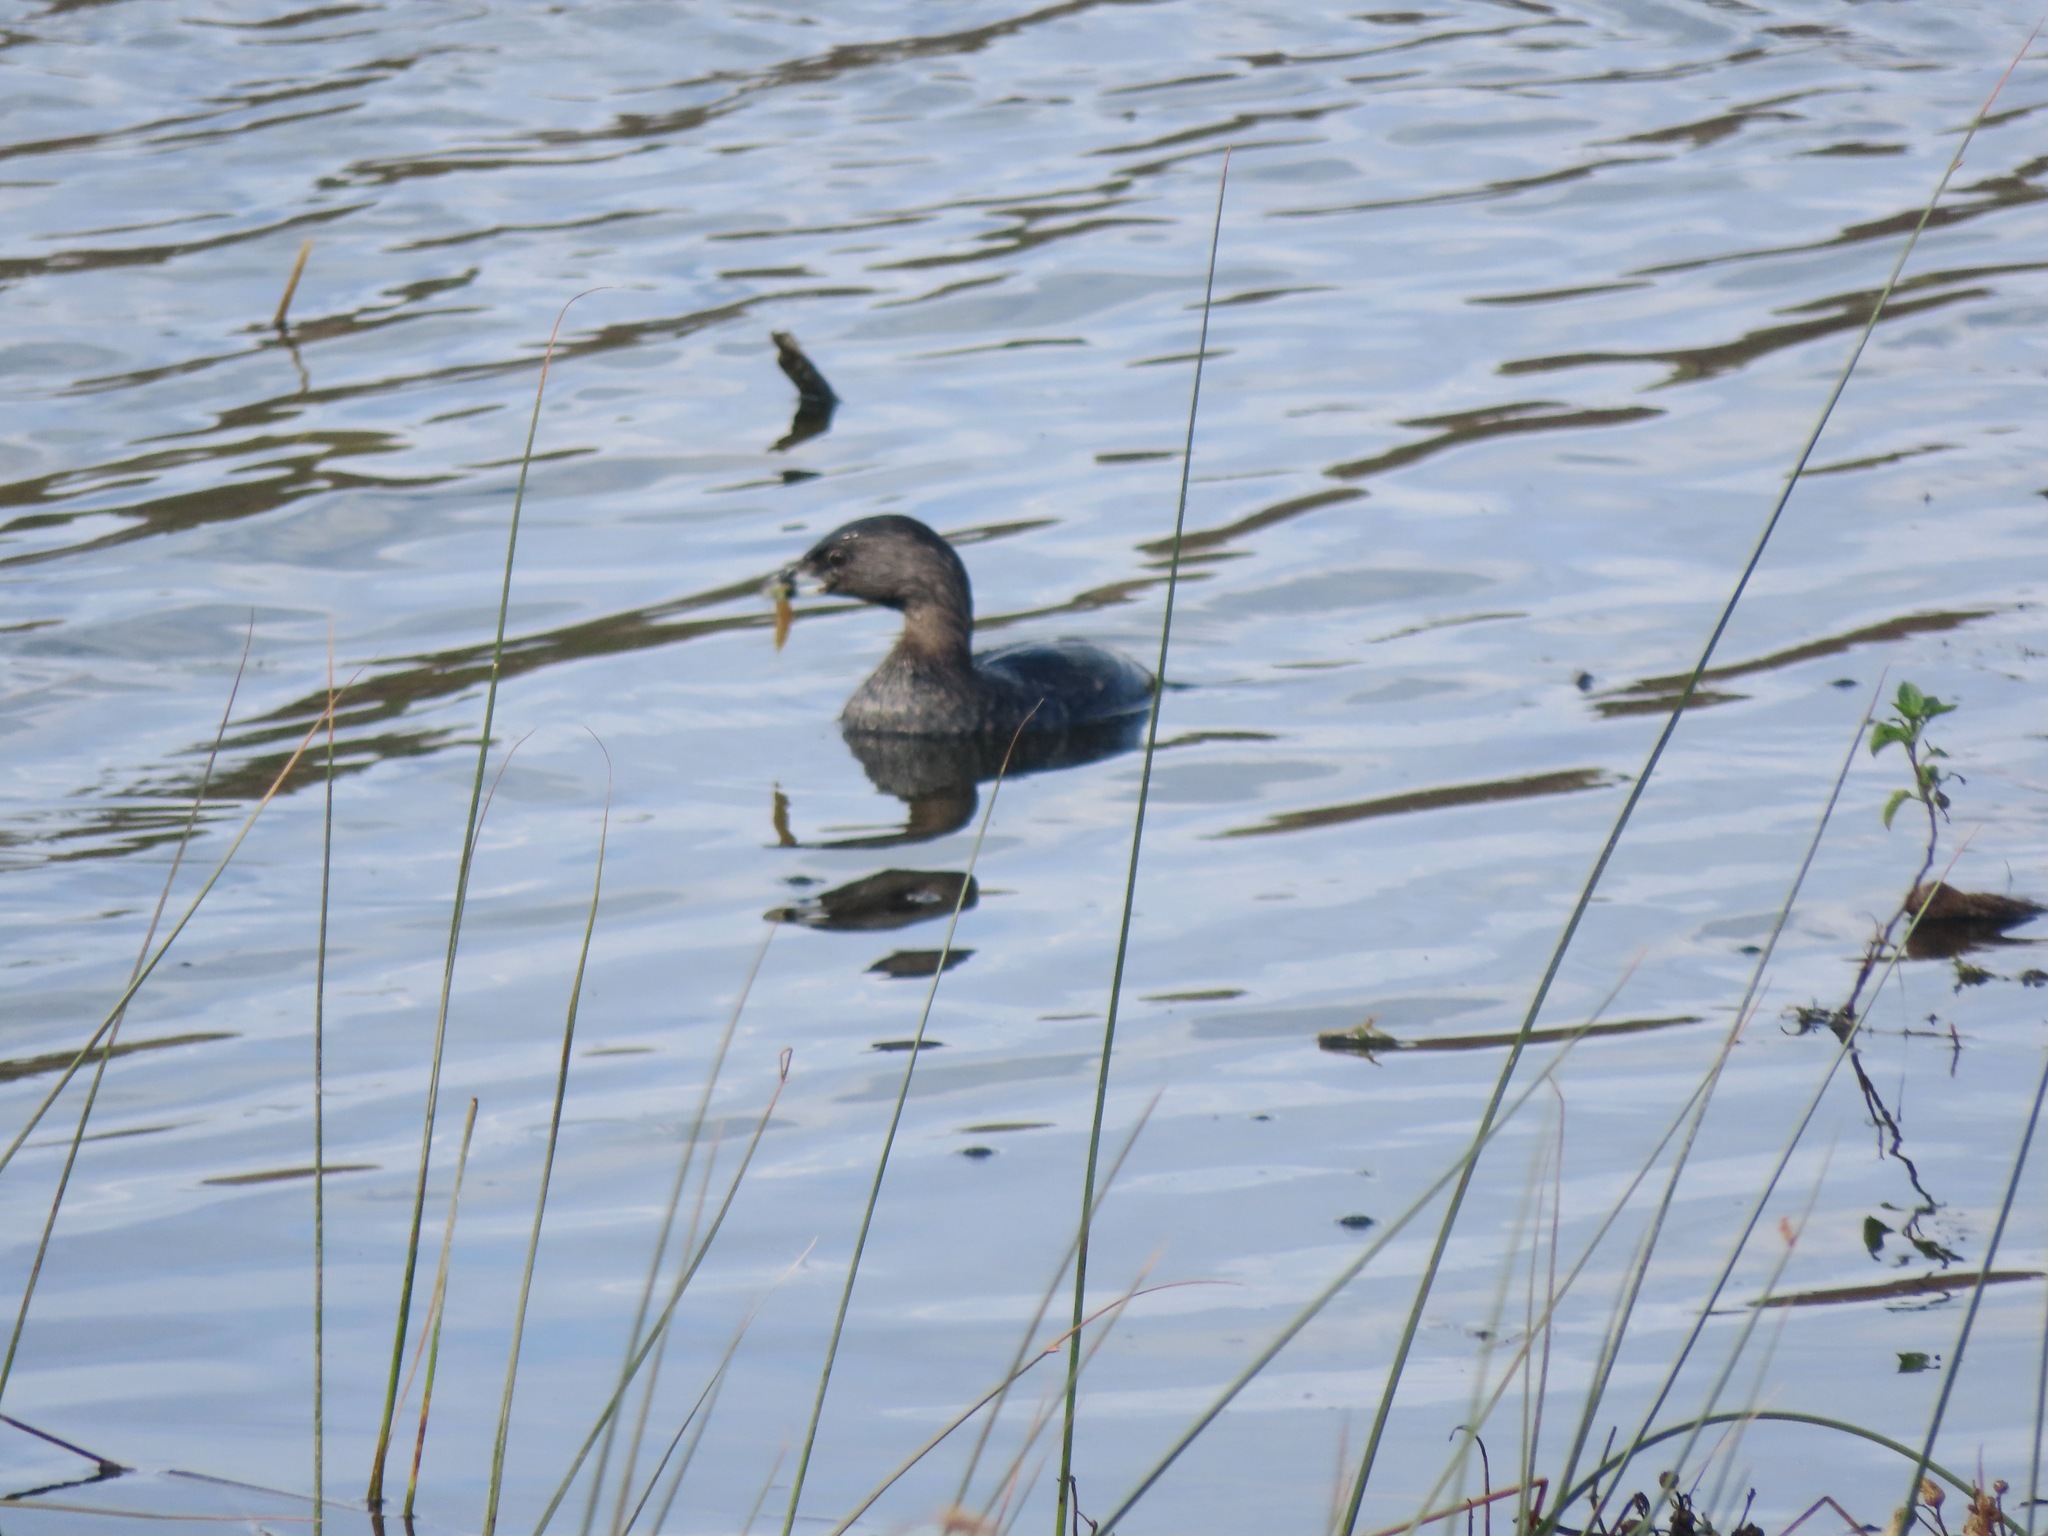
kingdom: Animalia
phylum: Chordata
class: Aves
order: Podicipediformes
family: Podicipedidae
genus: Podilymbus
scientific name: Podilymbus podiceps
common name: Pied-billed grebe
